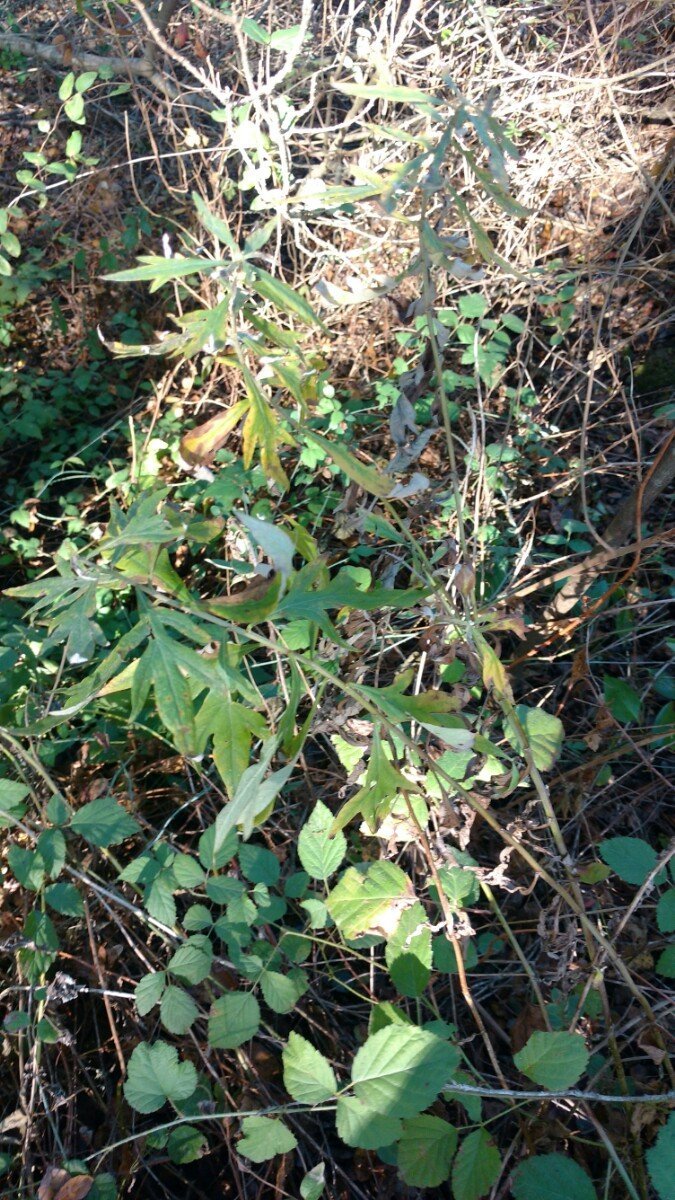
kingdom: Plantae
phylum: Tracheophyta
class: Magnoliopsida
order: Asterales
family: Asteraceae
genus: Artemisia
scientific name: Artemisia douglasiana
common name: Northwest mugwort
